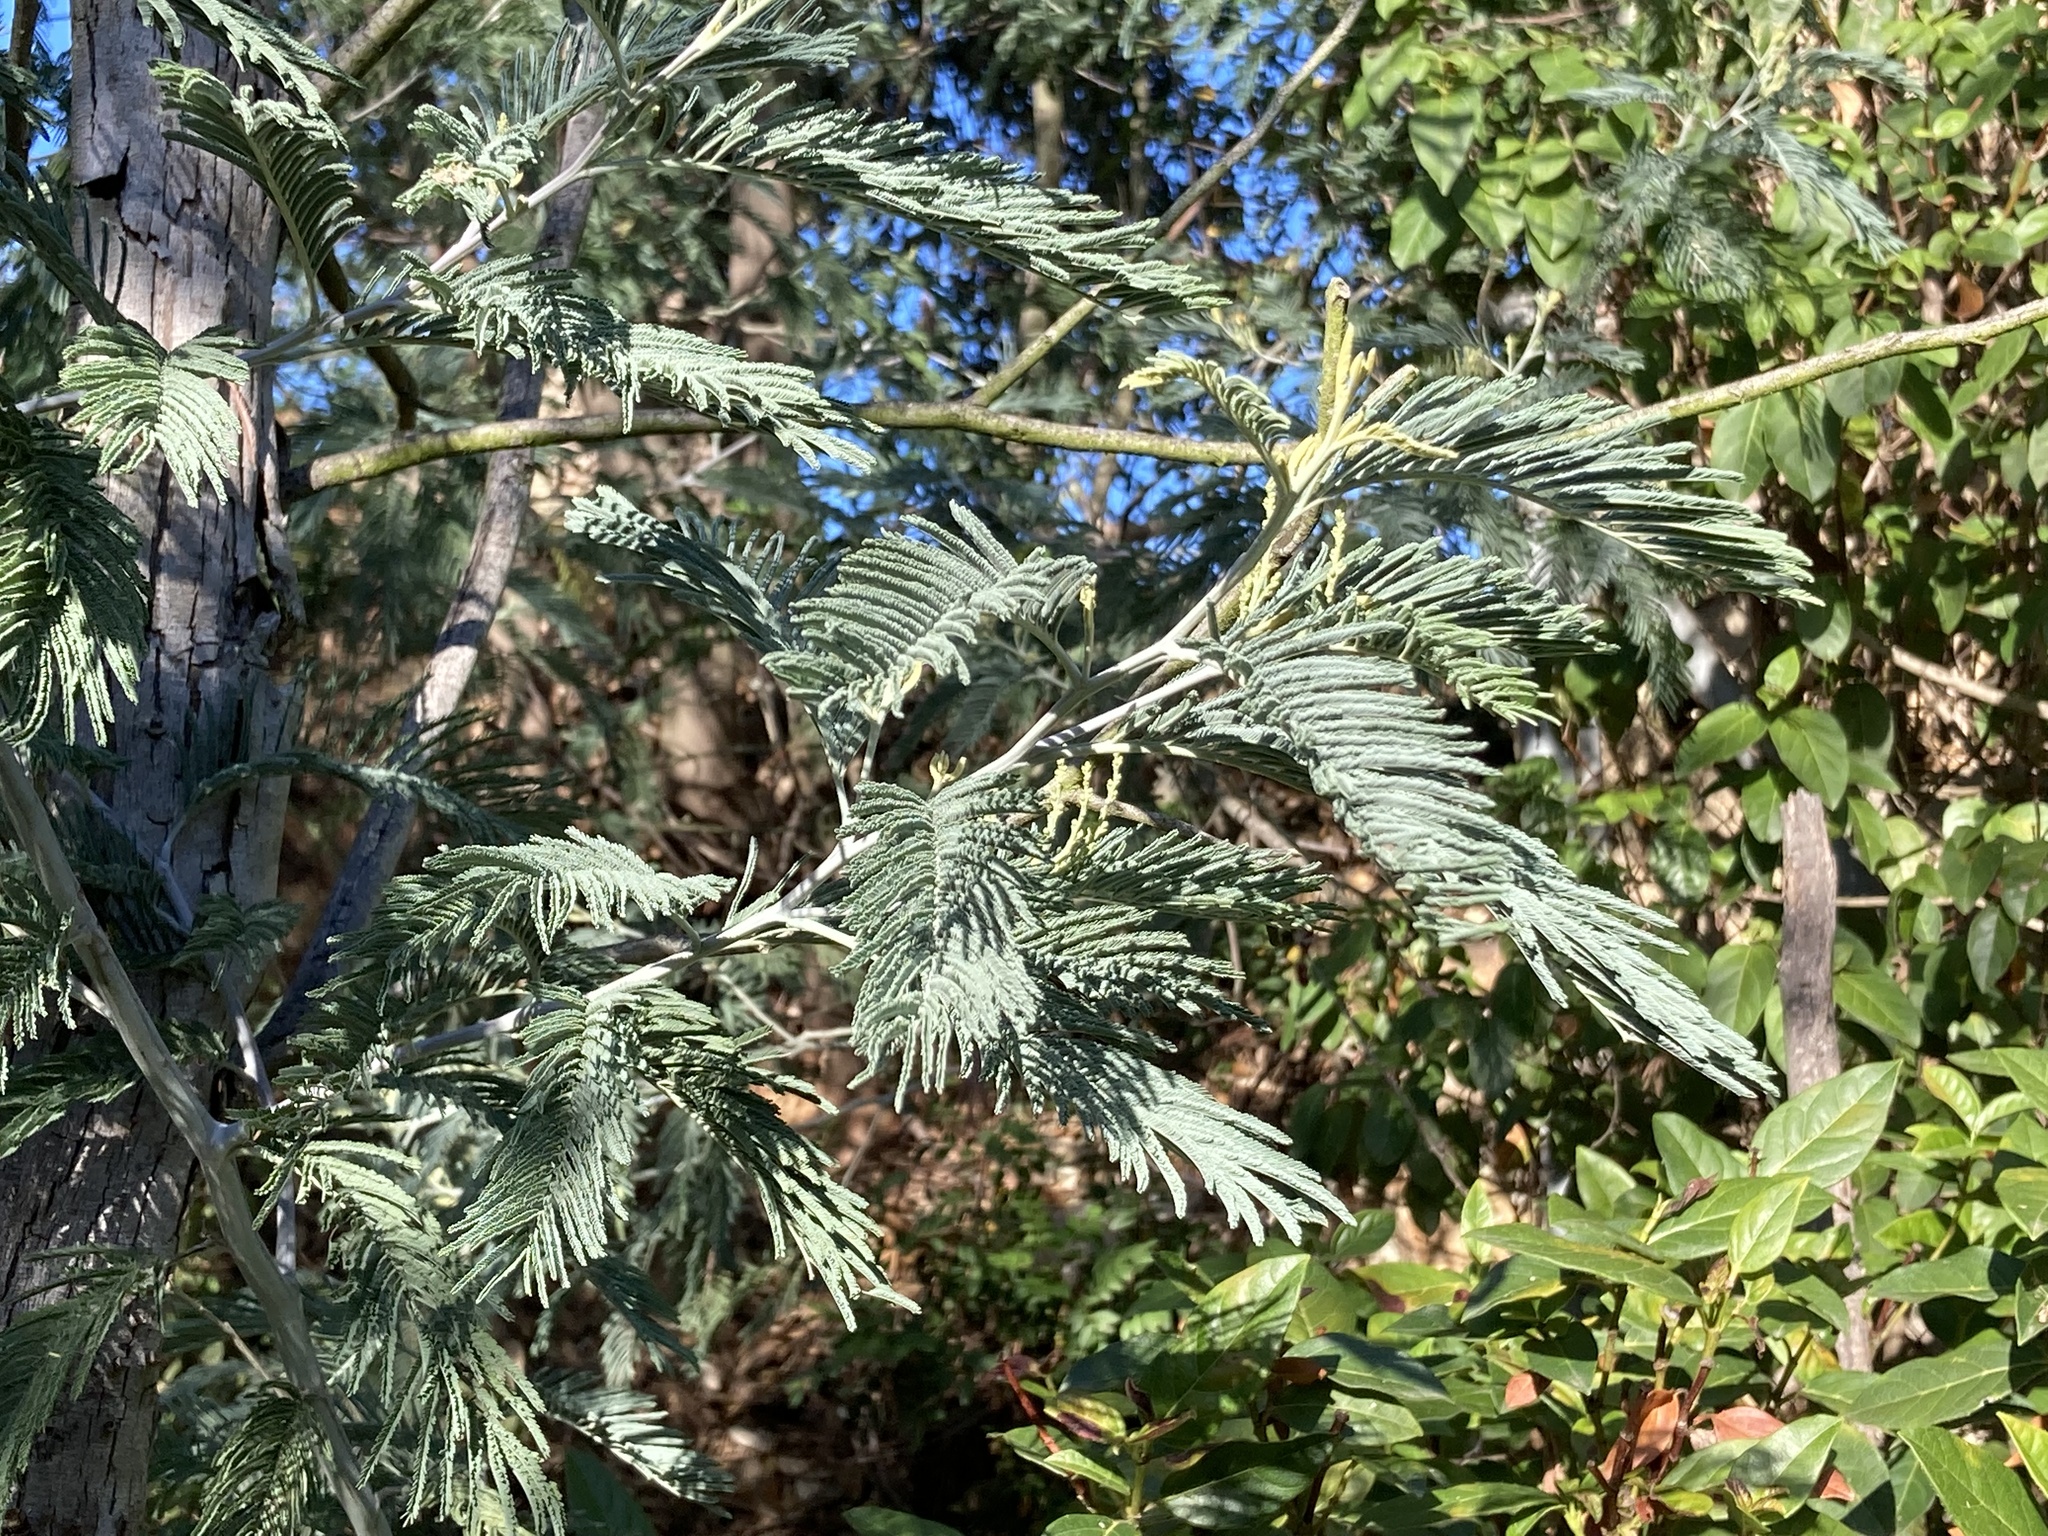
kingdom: Plantae
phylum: Tracheophyta
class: Magnoliopsida
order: Fabales
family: Fabaceae
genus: Acacia
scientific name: Acacia dealbata
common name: Silver wattle
